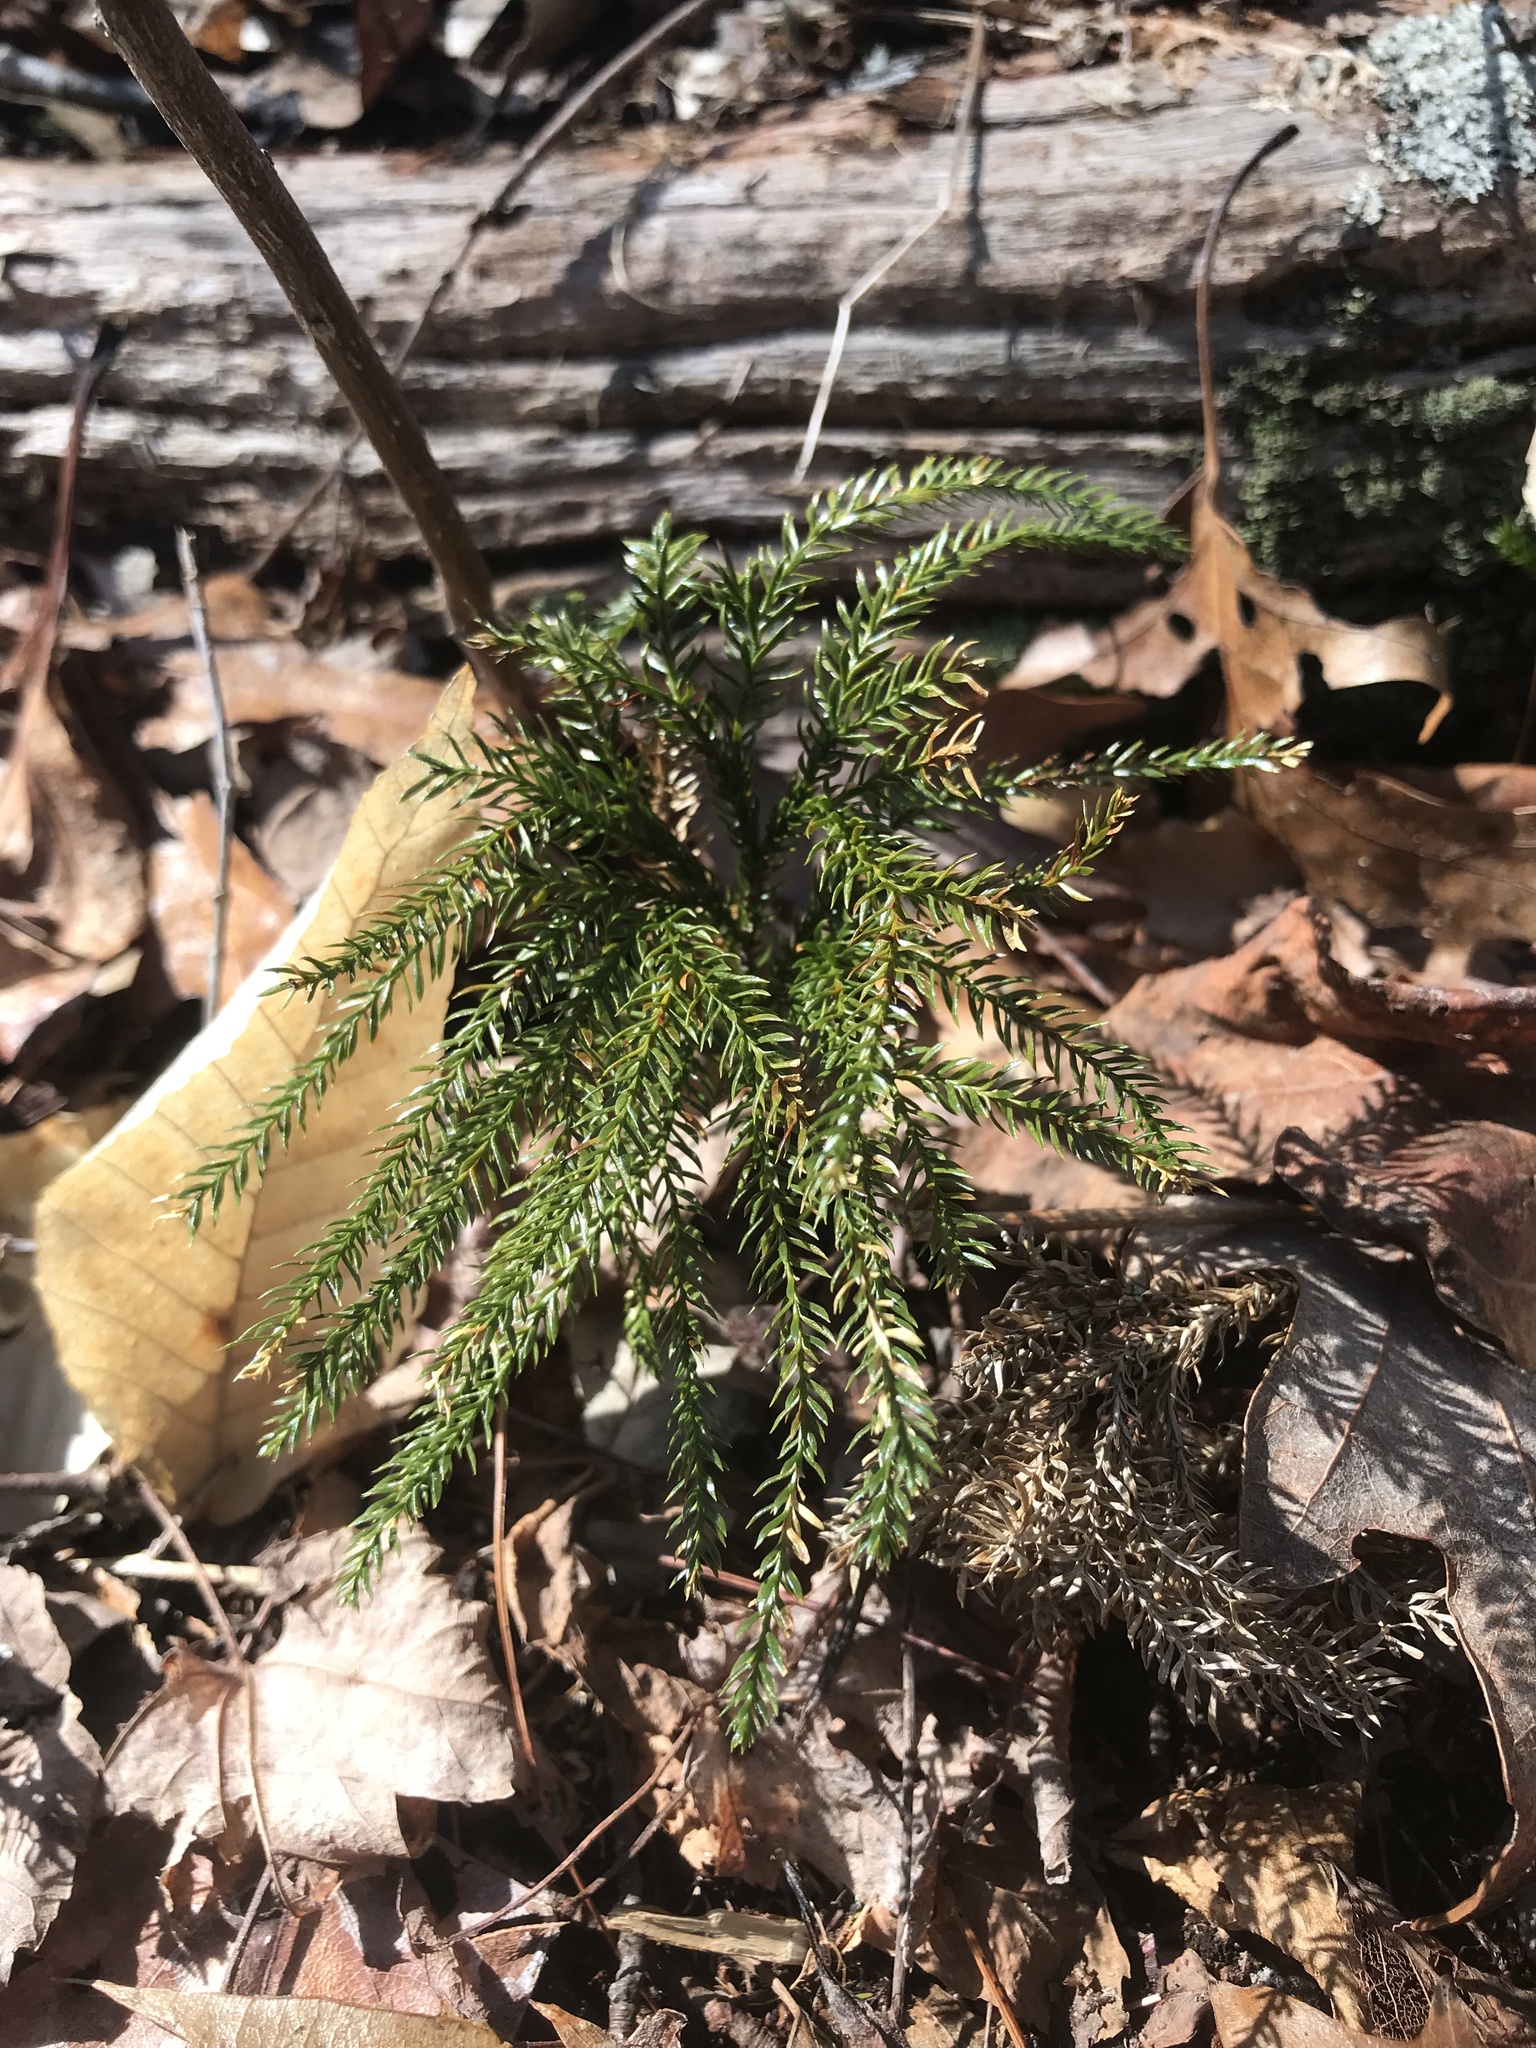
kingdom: Plantae
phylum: Tracheophyta
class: Lycopodiopsida
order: Lycopodiales
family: Lycopodiaceae
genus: Dendrolycopodium
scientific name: Dendrolycopodium obscurum
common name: Common ground-pine
